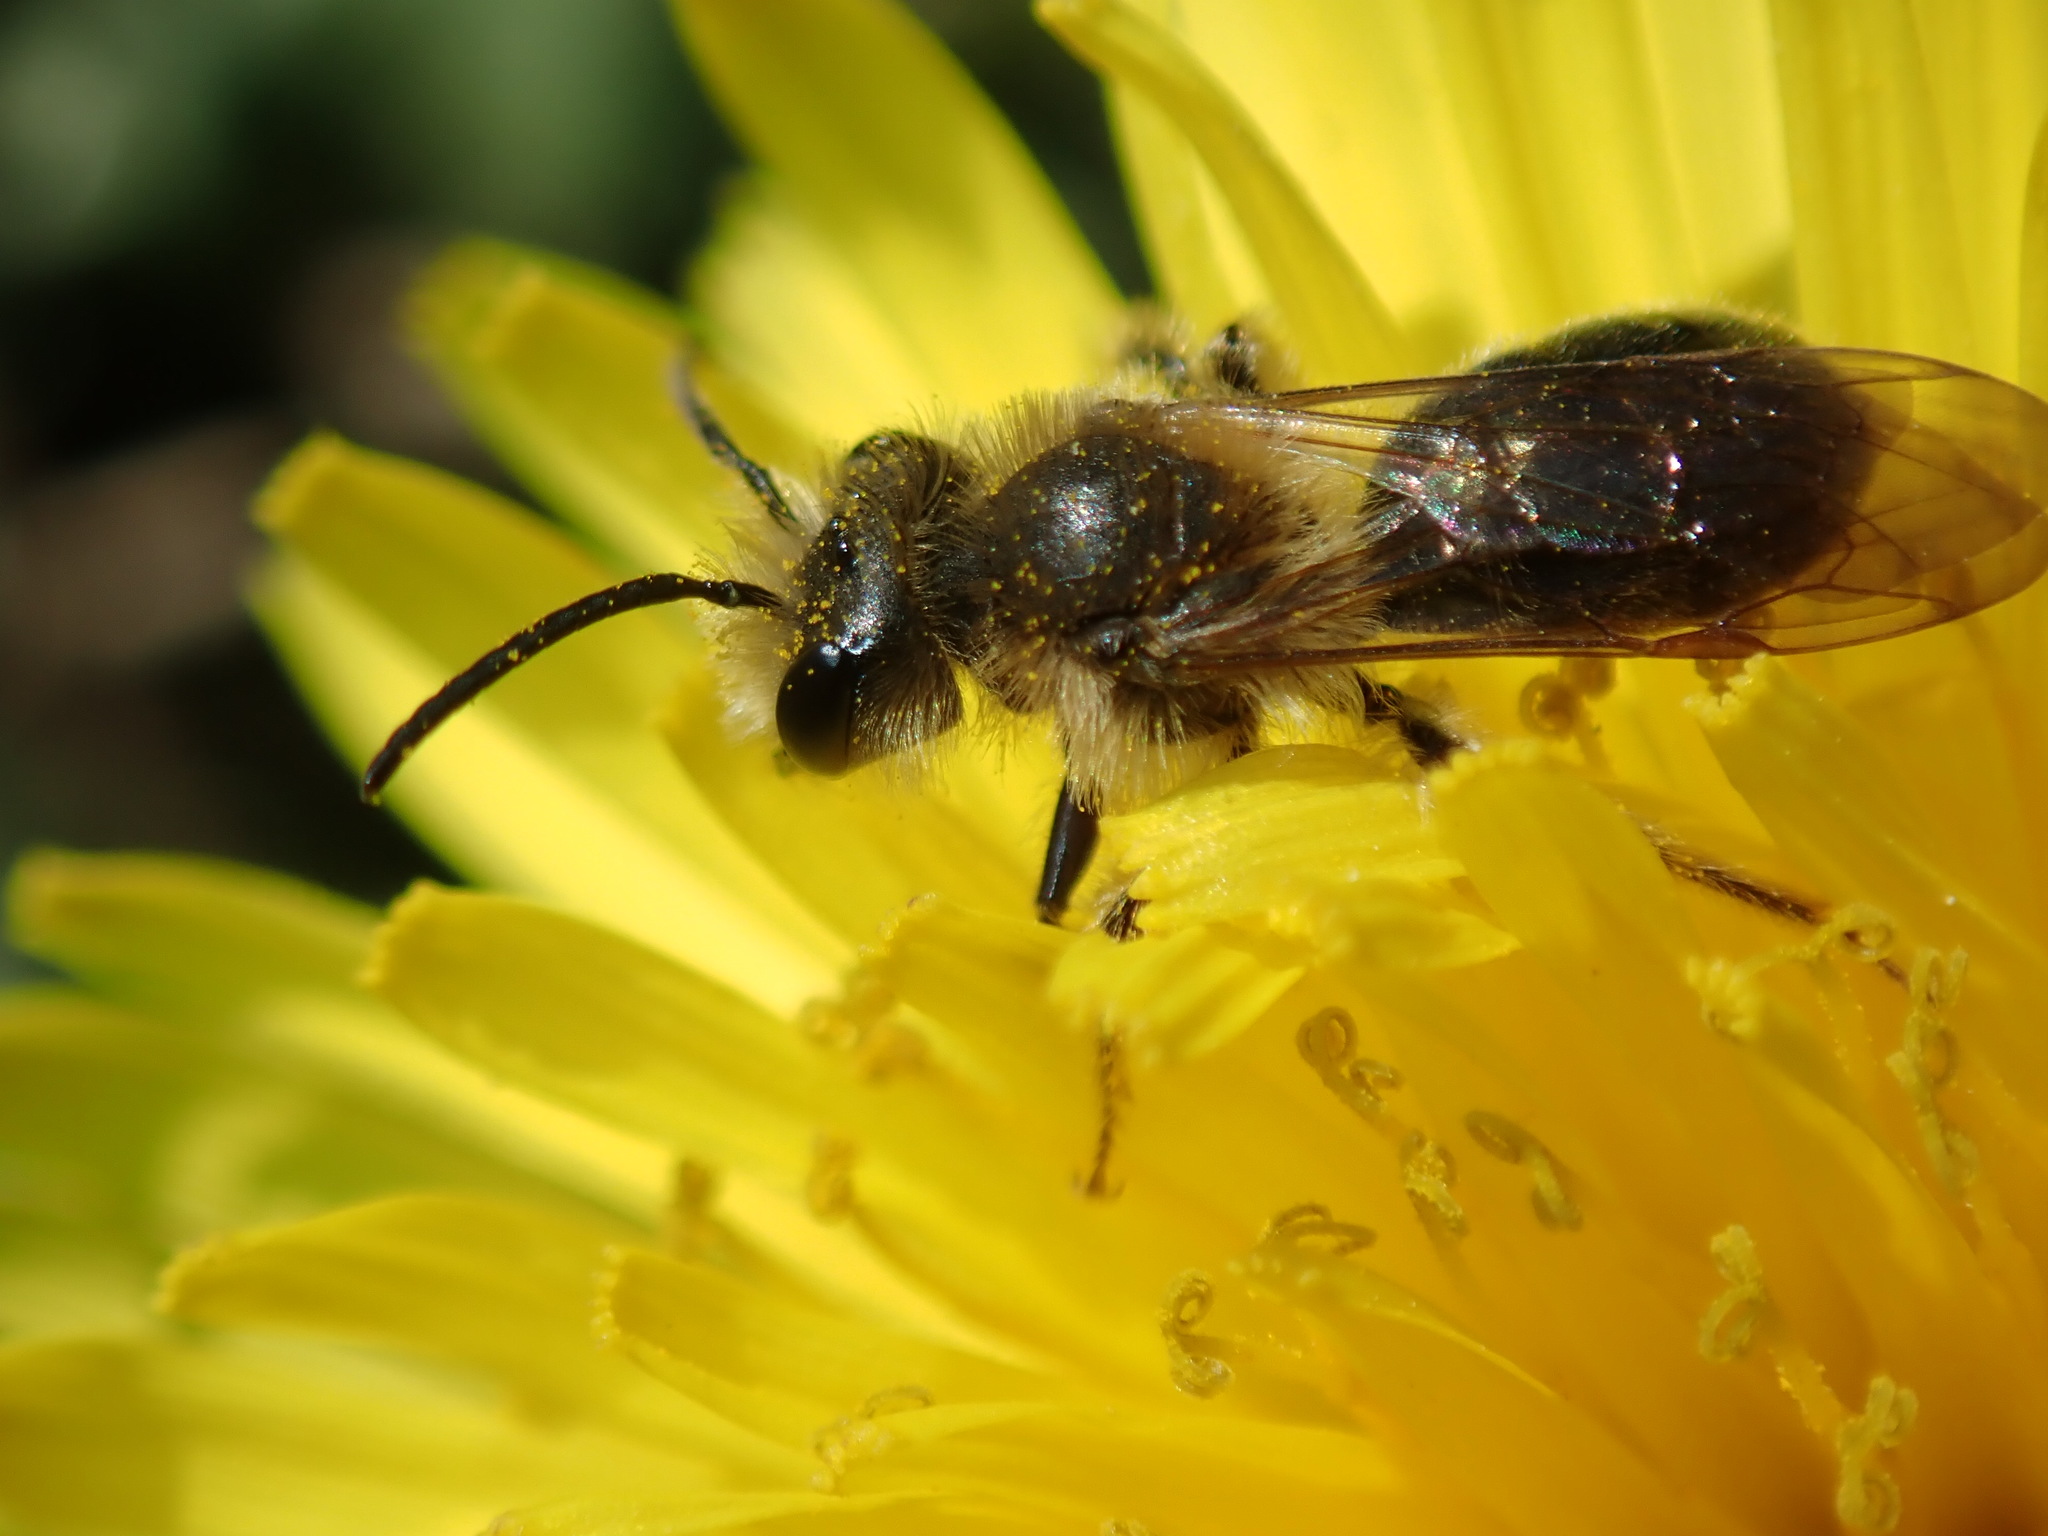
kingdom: Animalia
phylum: Arthropoda
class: Insecta
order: Hymenoptera
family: Andrenidae
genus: Andrena
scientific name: Andrena
